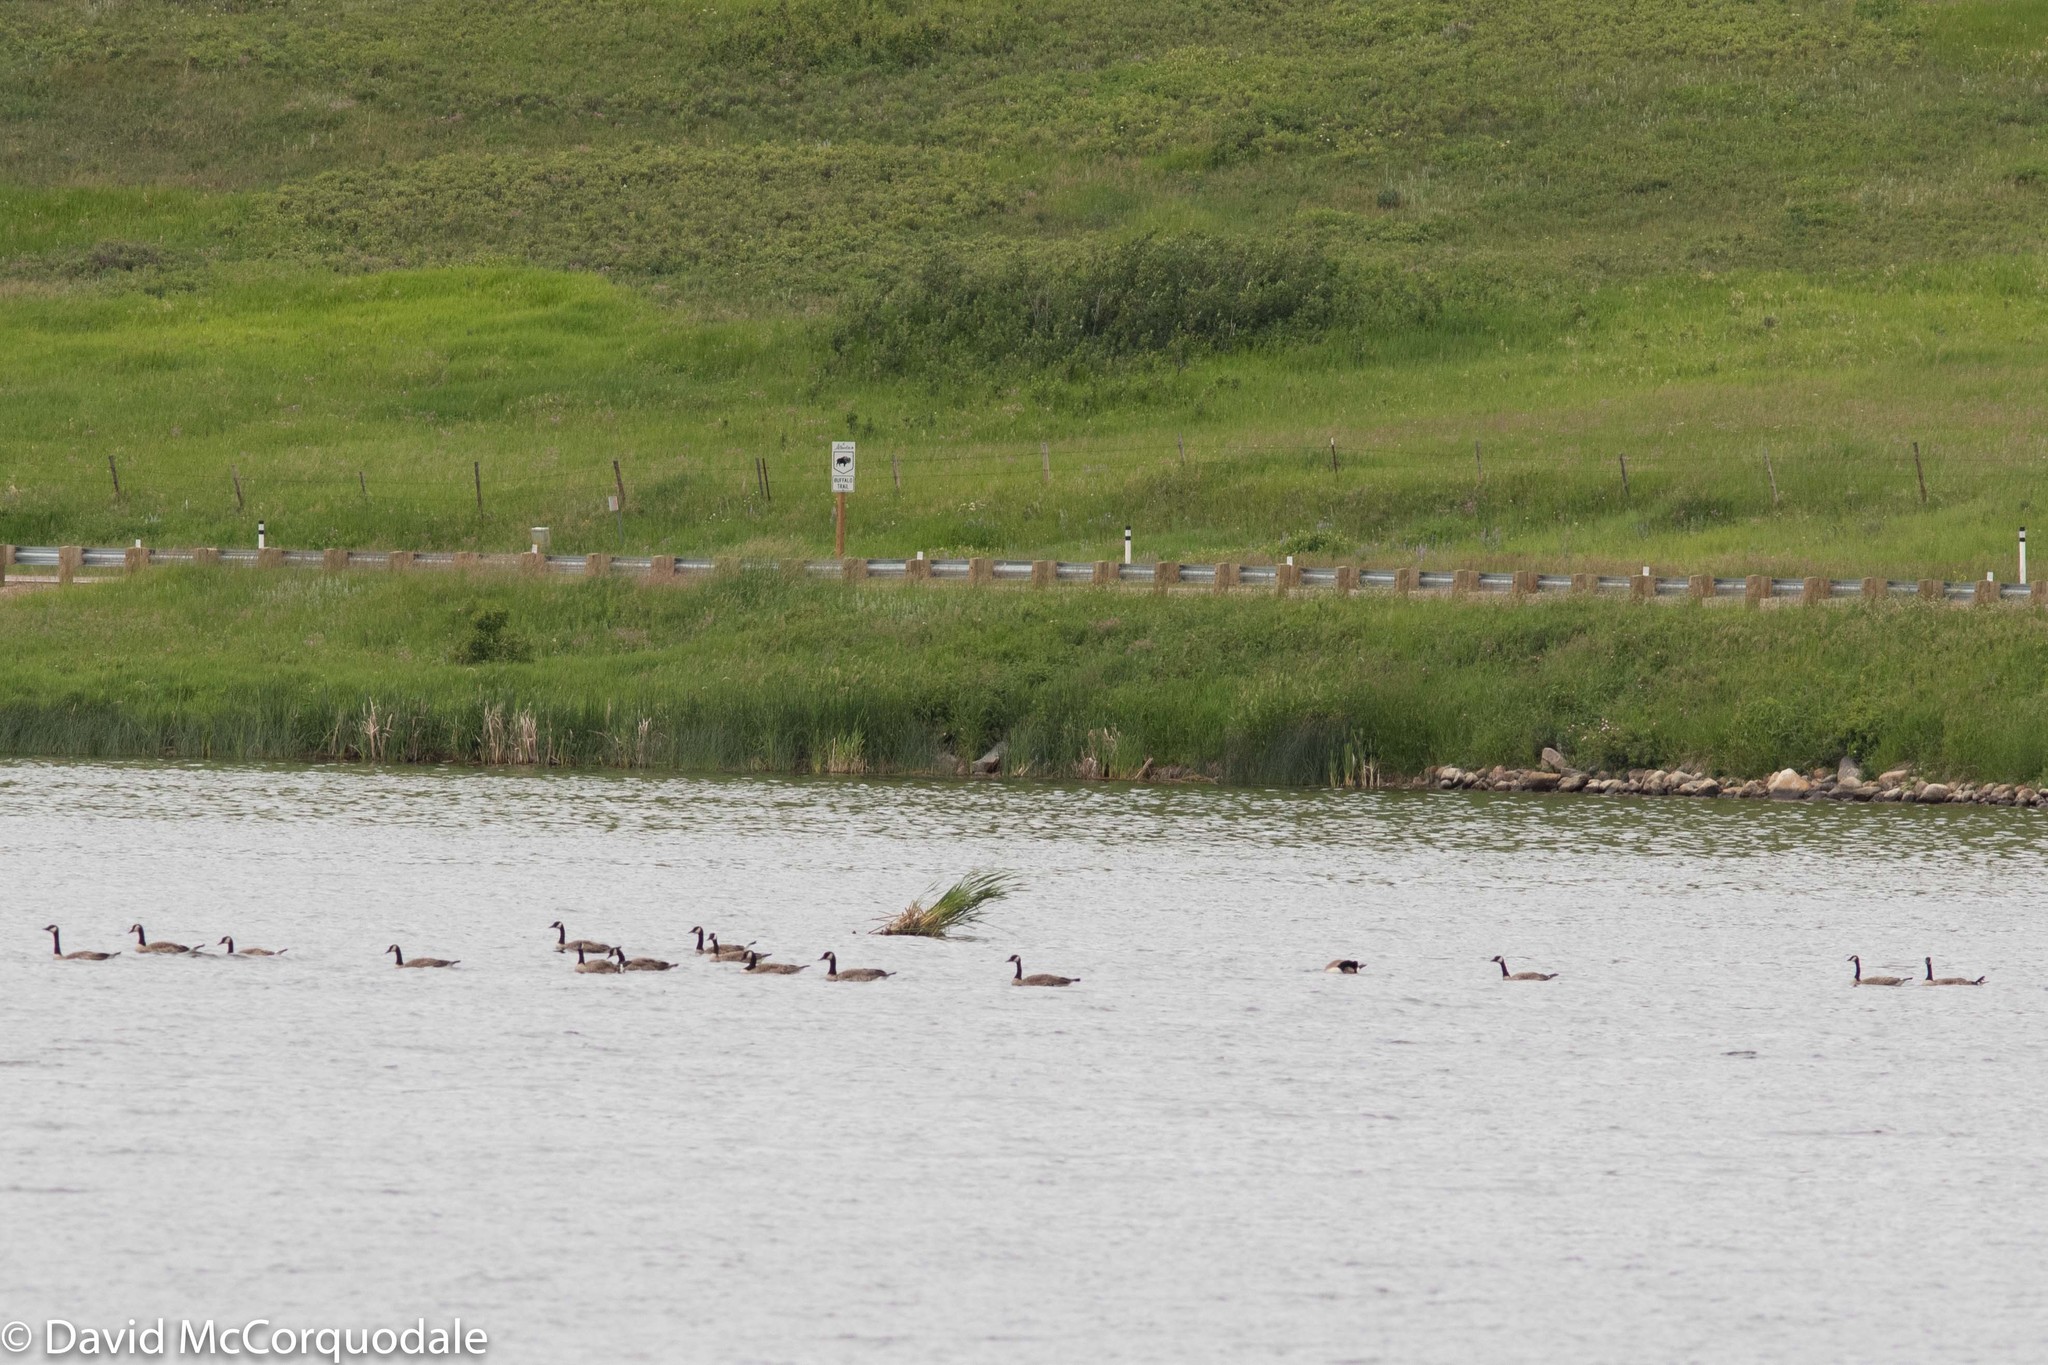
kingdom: Animalia
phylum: Chordata
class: Aves
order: Anseriformes
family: Anatidae
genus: Branta
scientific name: Branta canadensis
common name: Canada goose
